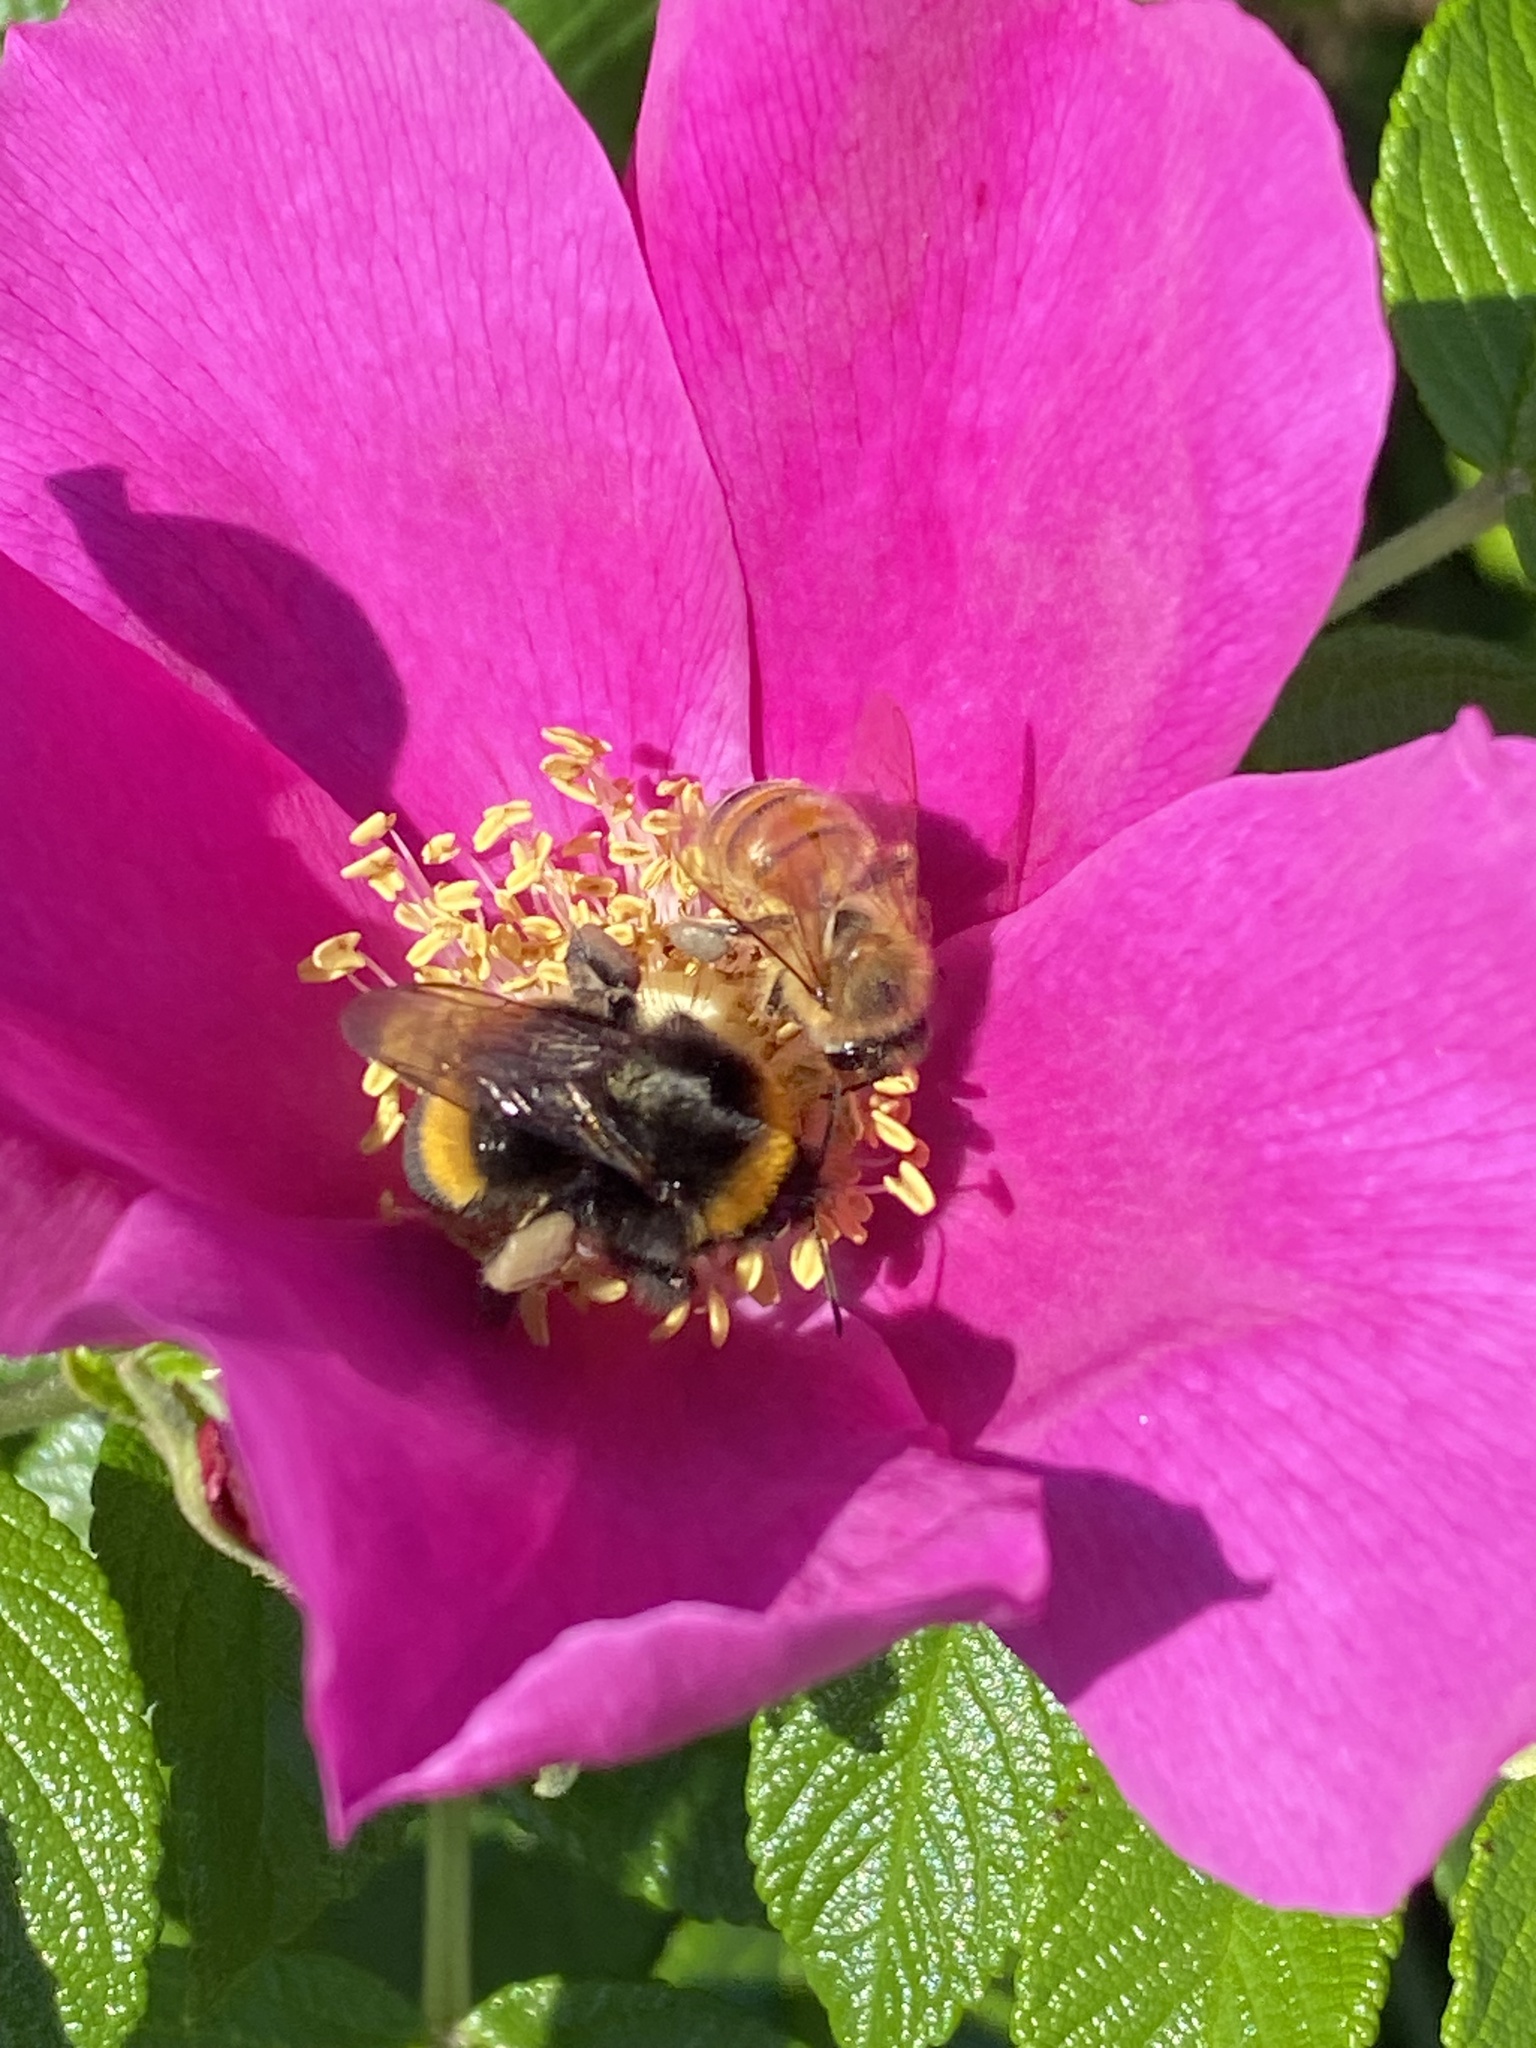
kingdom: Animalia
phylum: Arthropoda
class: Insecta
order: Hymenoptera
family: Apidae
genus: Apis
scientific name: Apis mellifera
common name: Honey bee
